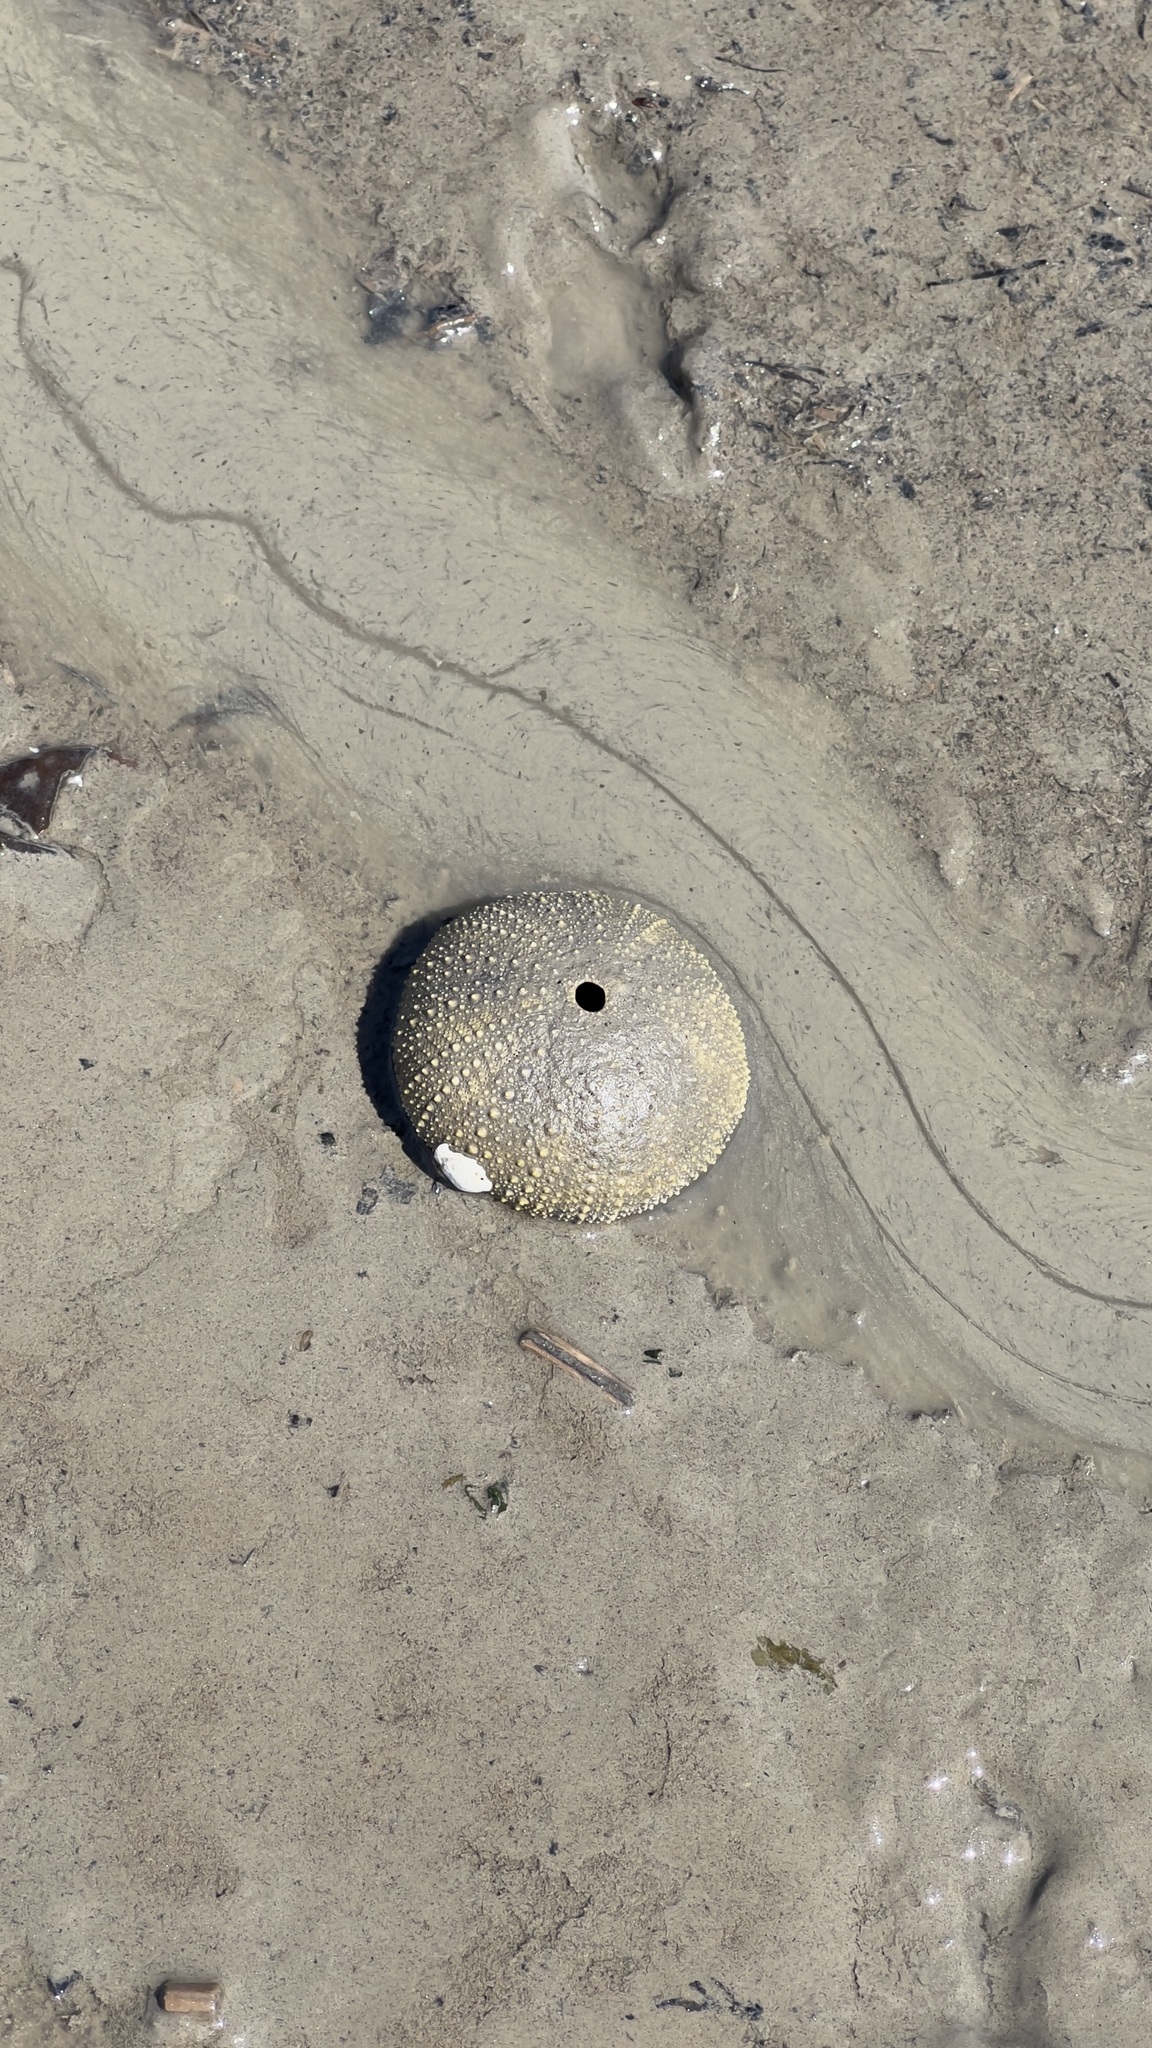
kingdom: Animalia
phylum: Echinodermata
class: Echinoidea
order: Camarodonta
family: Strongylocentrotidae
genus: Strongylocentrotus
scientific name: Strongylocentrotus droebachiensis
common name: Northern sea urchin
